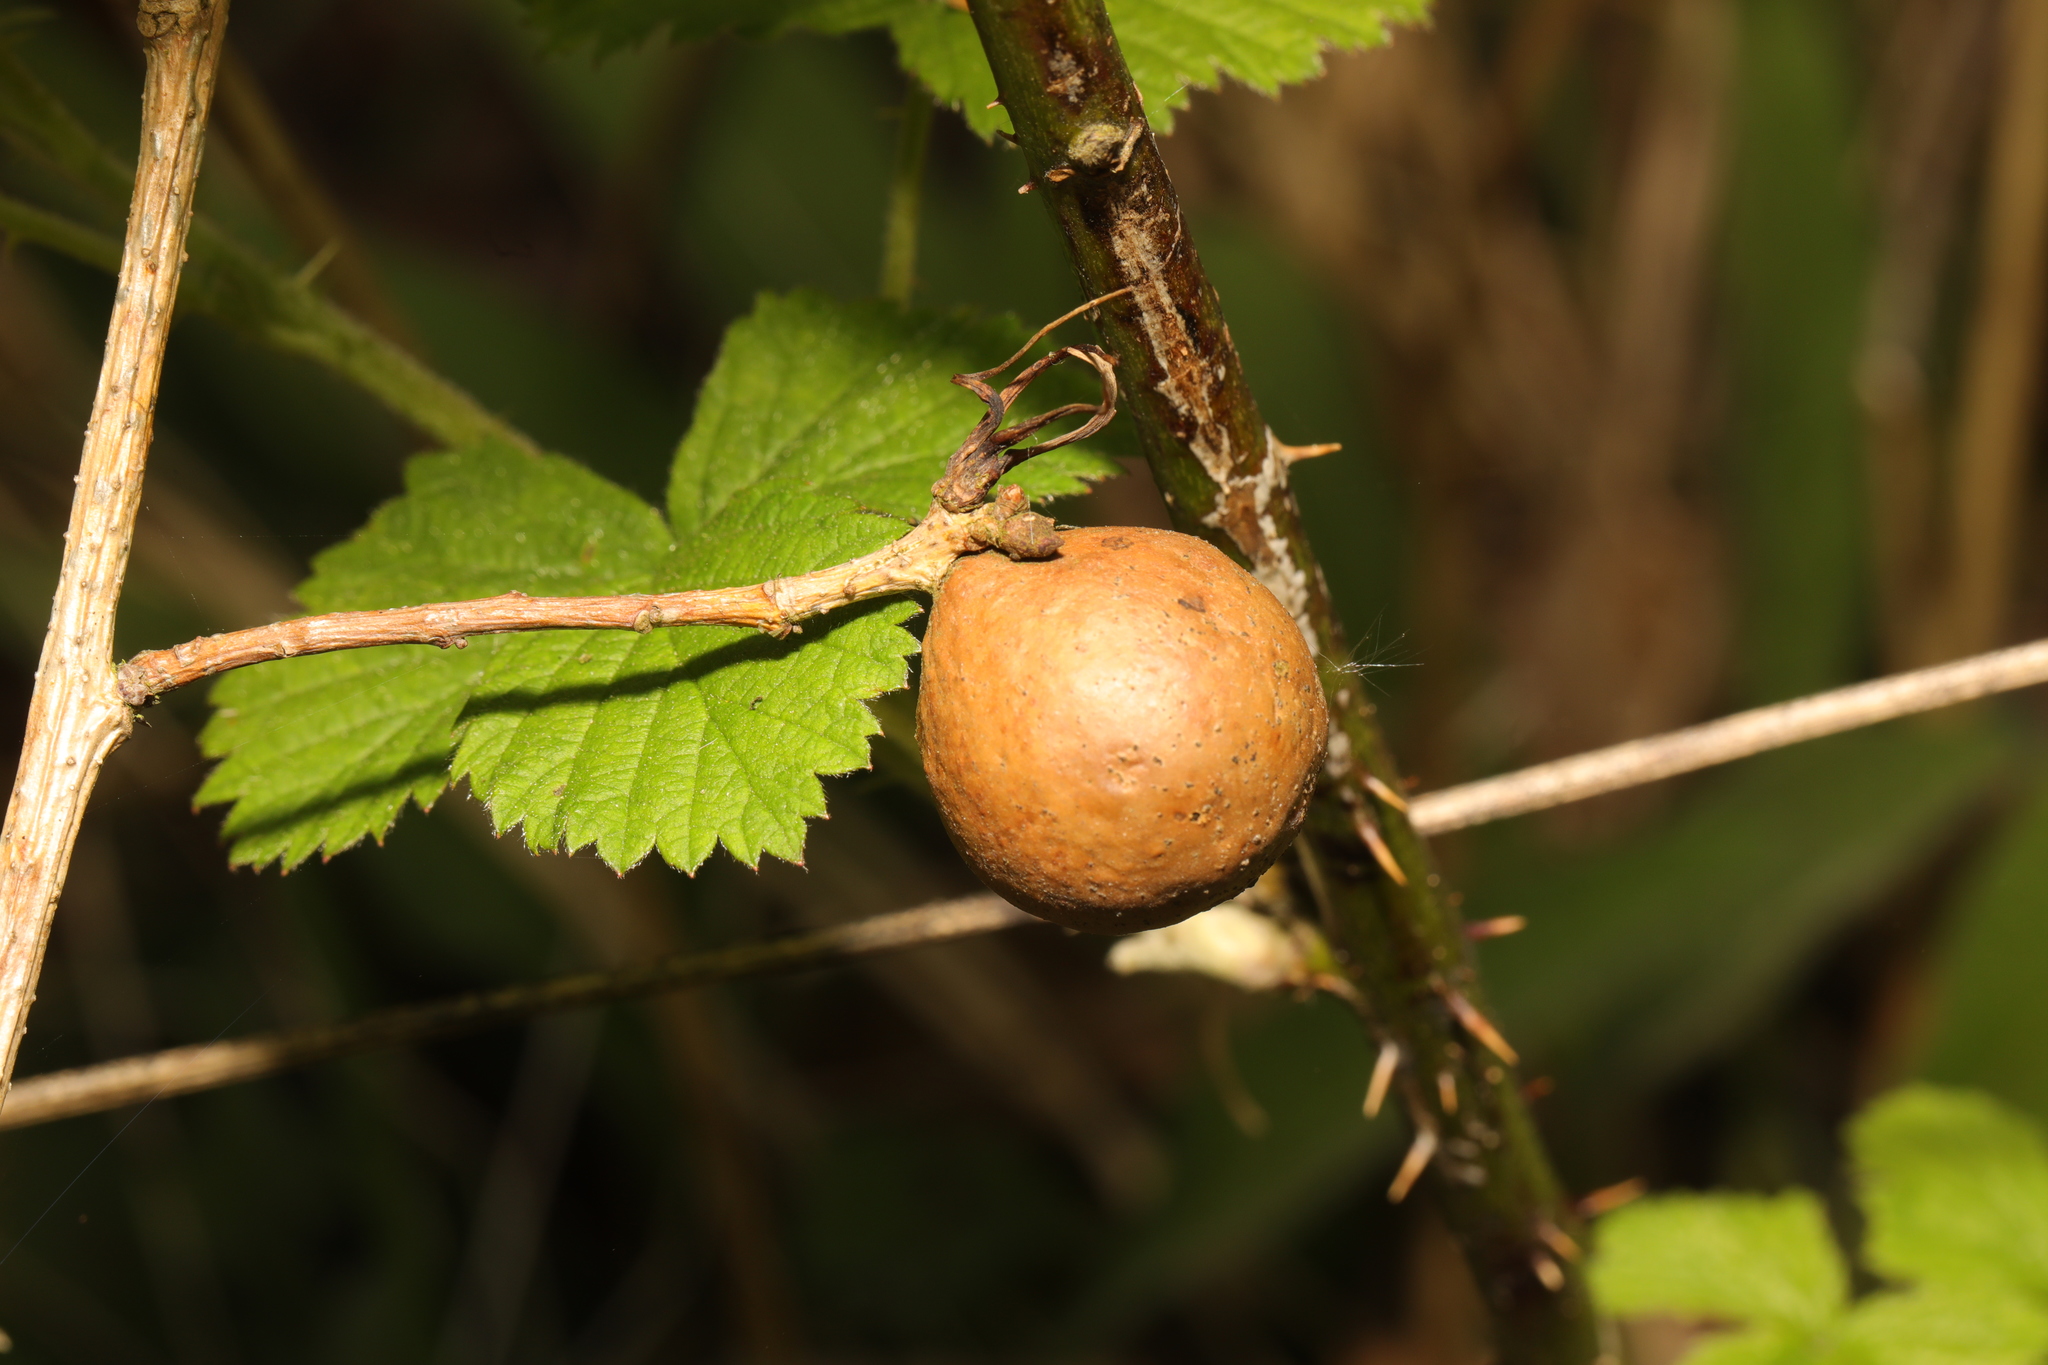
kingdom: Animalia
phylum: Arthropoda
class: Insecta
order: Hymenoptera
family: Cynipidae
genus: Andricus
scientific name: Andricus kollari
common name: Marble gall
